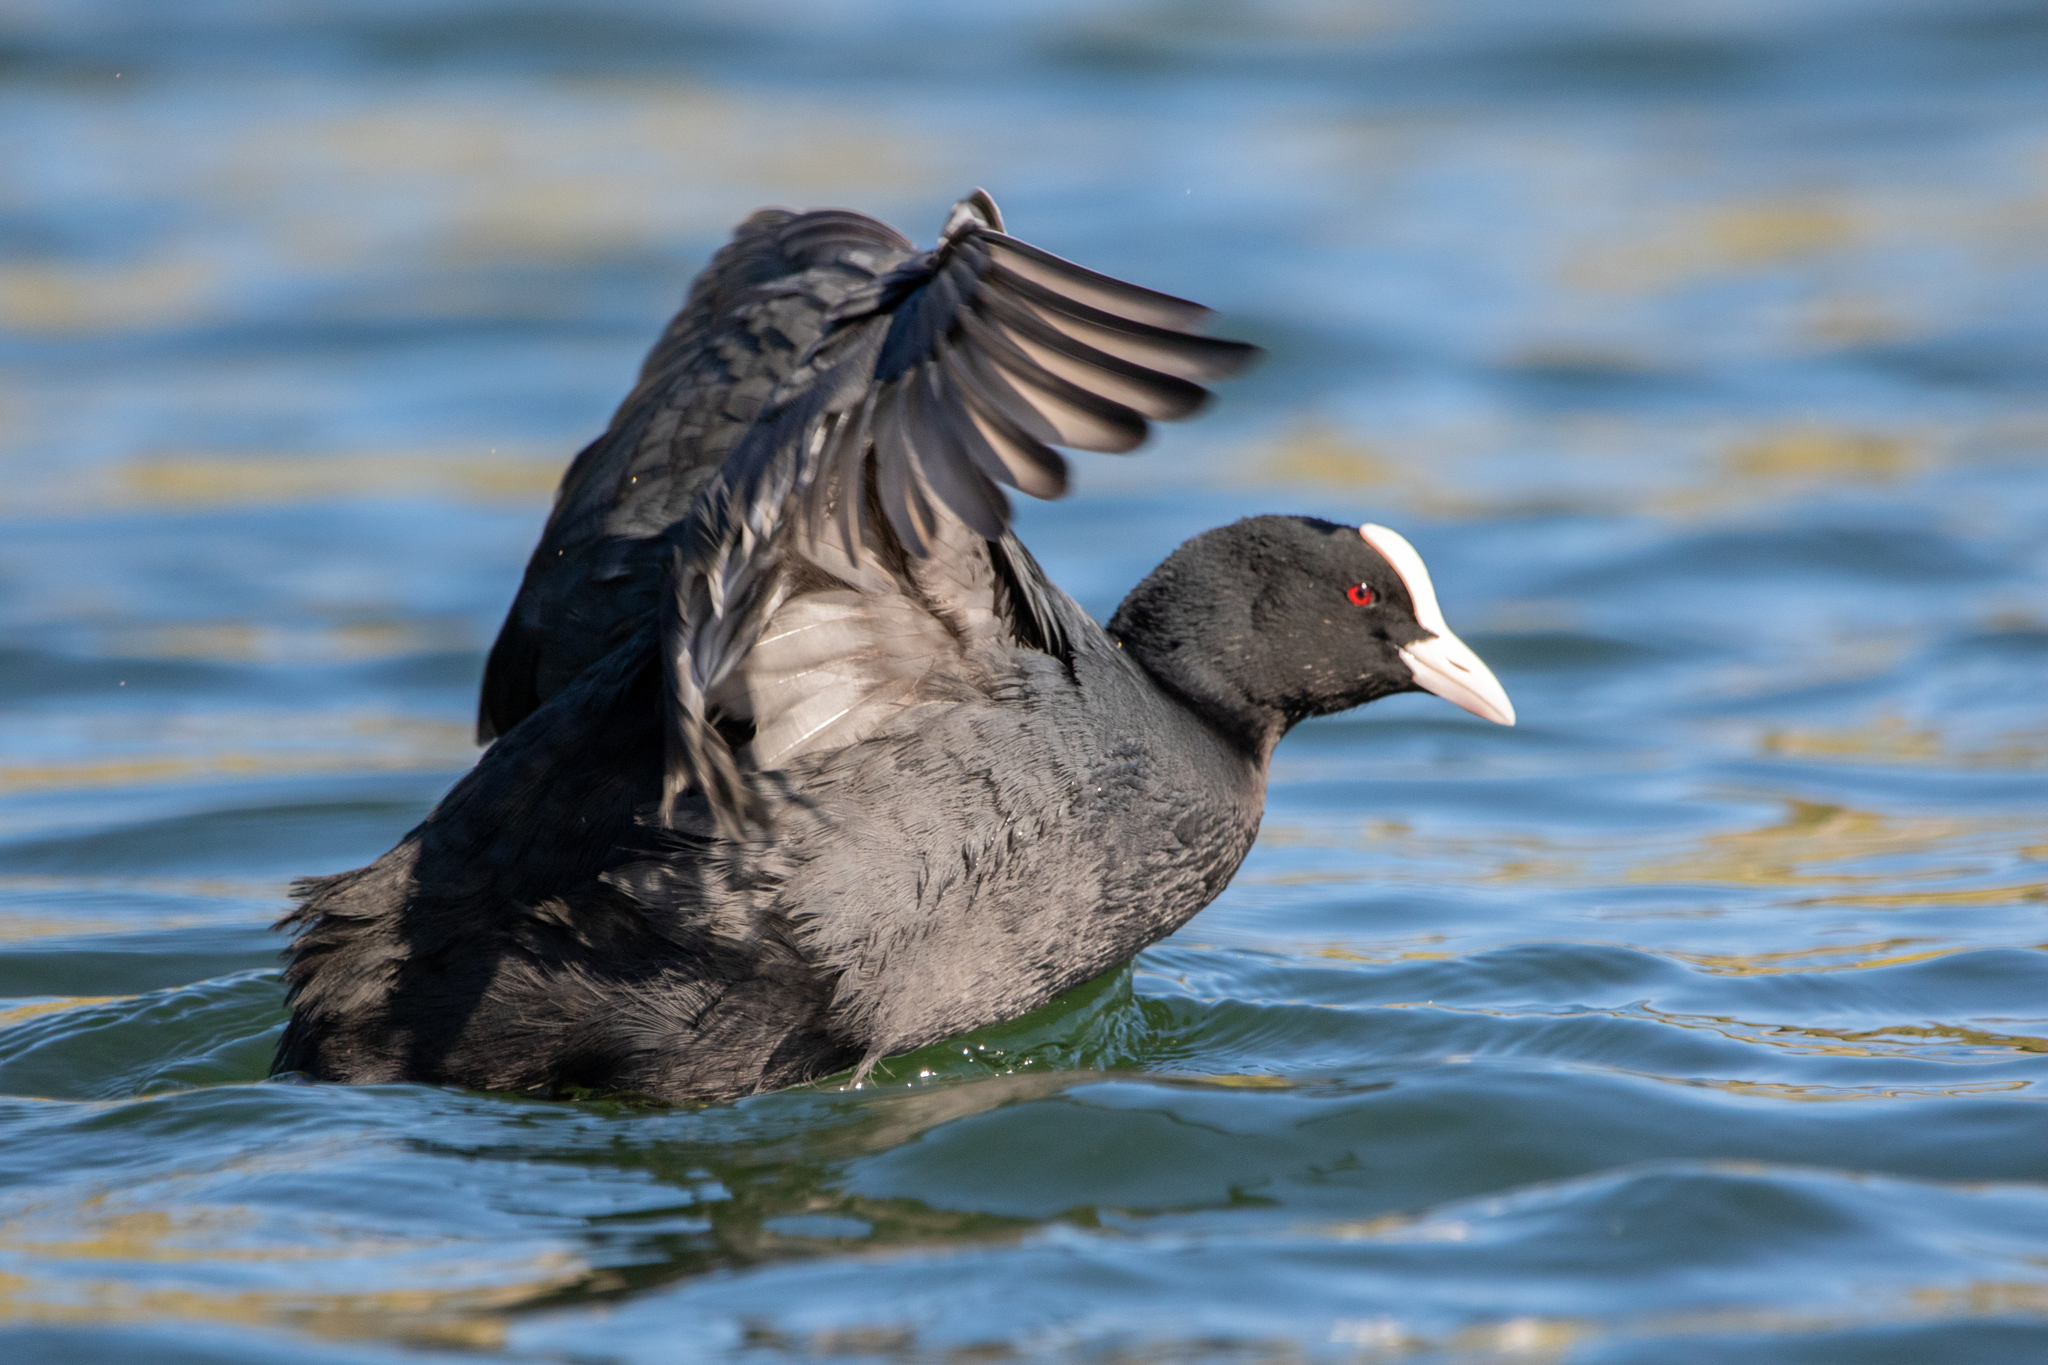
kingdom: Animalia
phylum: Chordata
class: Aves
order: Gruiformes
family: Rallidae
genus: Fulica
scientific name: Fulica atra
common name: Eurasian coot
